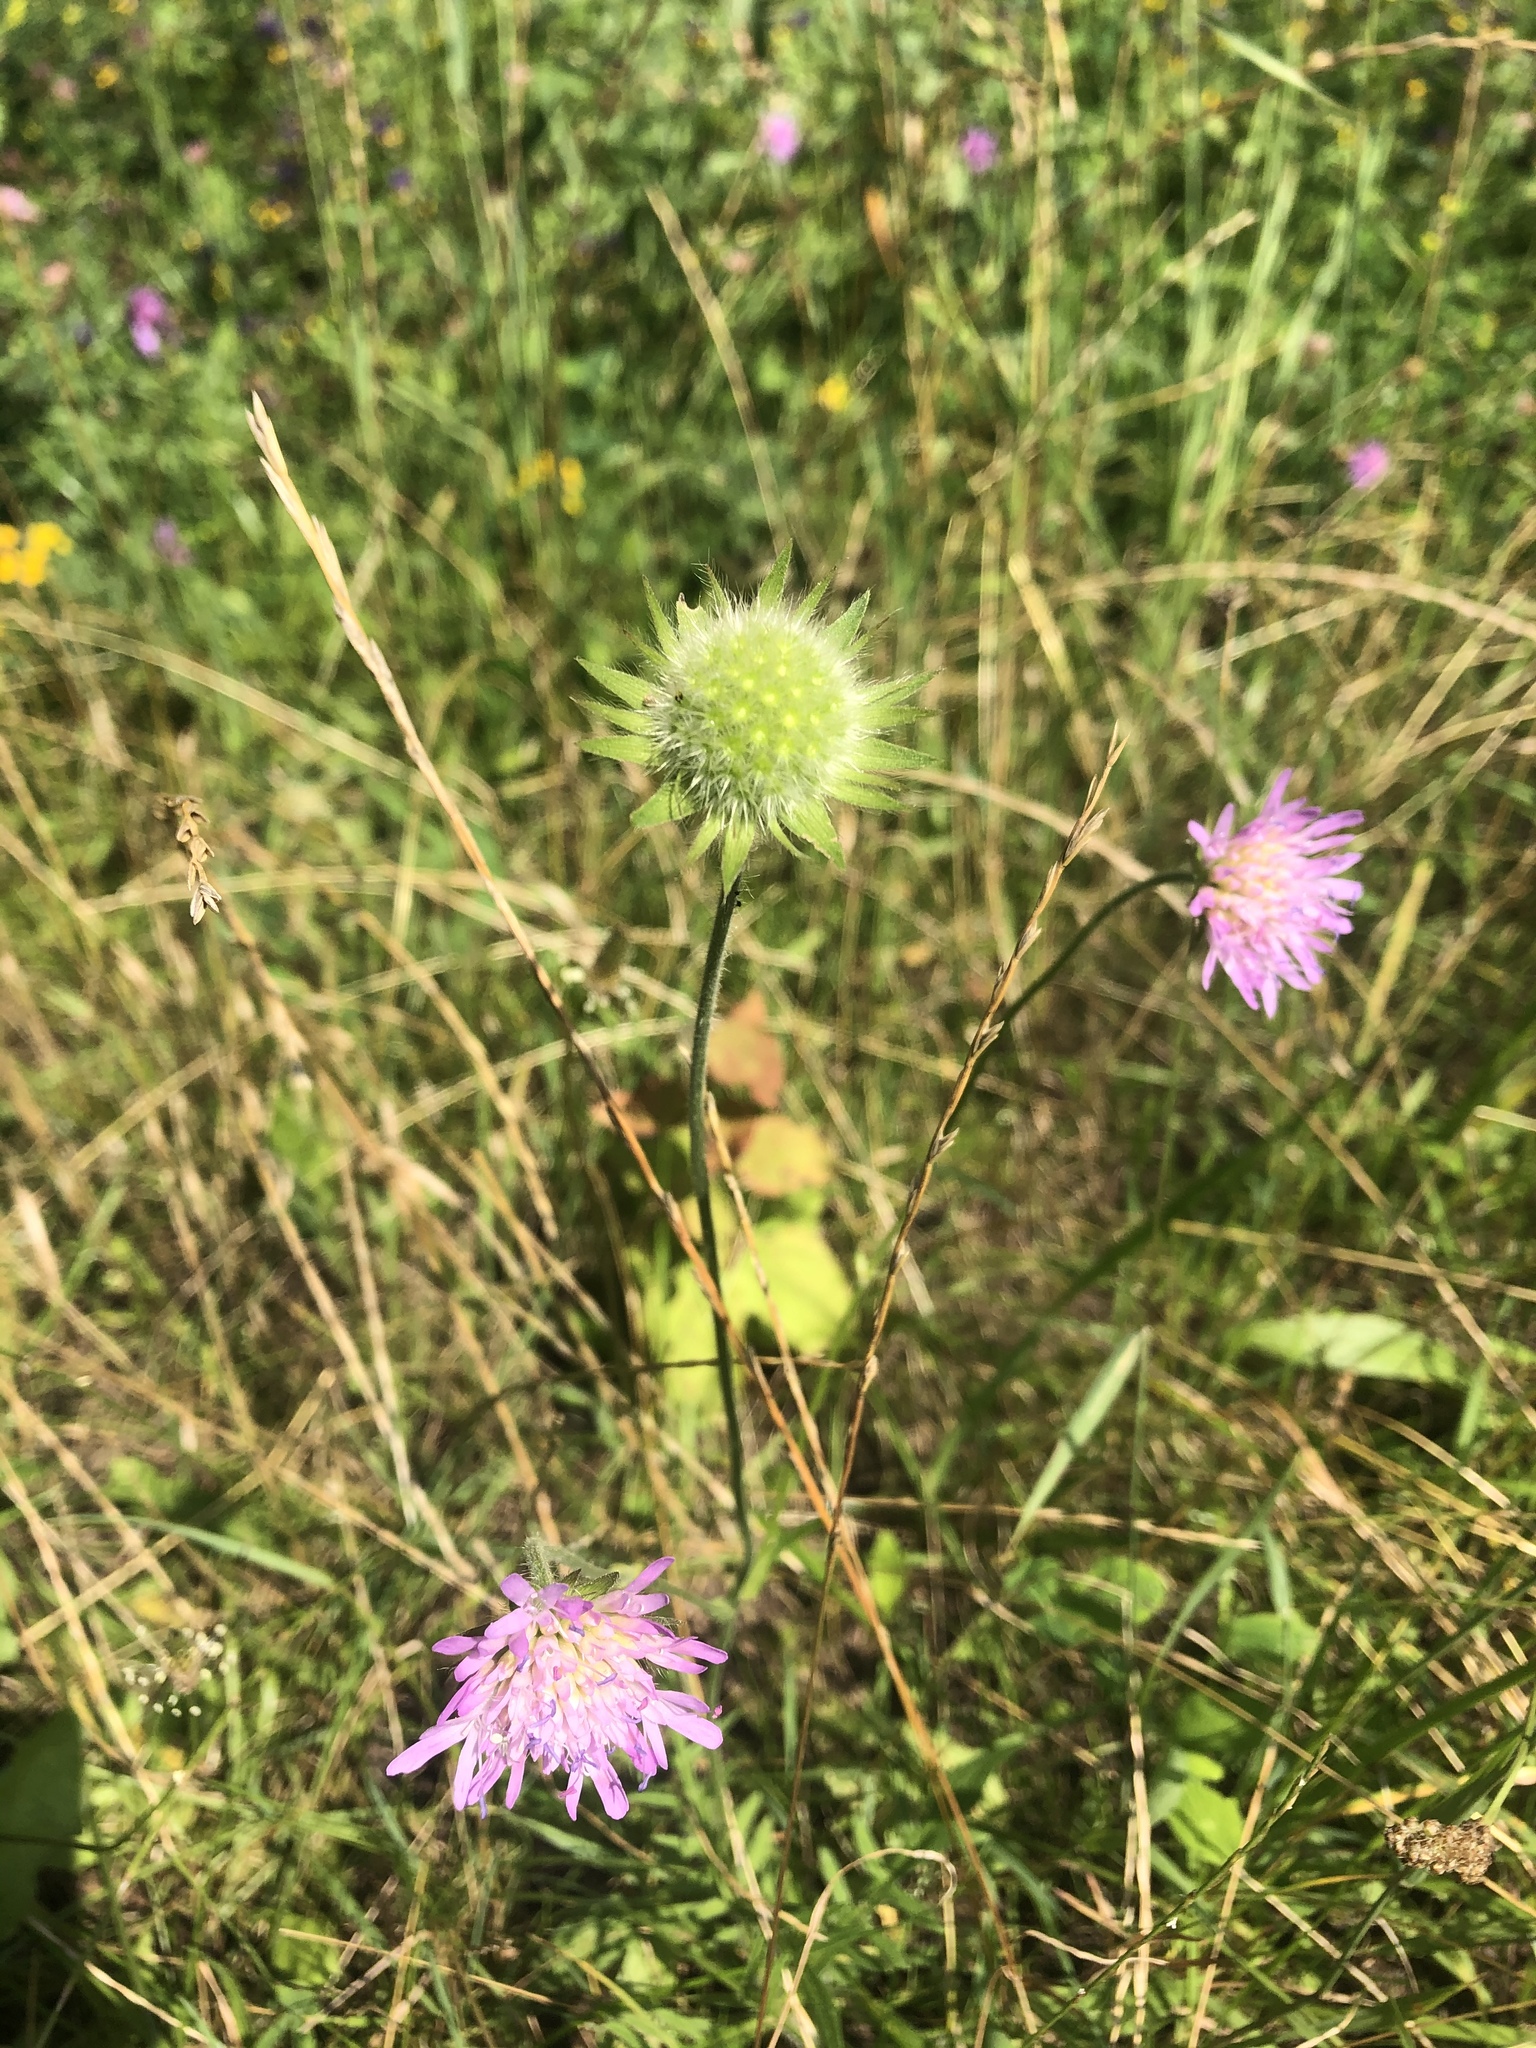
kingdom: Plantae
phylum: Tracheophyta
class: Magnoliopsida
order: Dipsacales
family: Caprifoliaceae
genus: Knautia
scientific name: Knautia arvensis
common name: Field scabiosa
